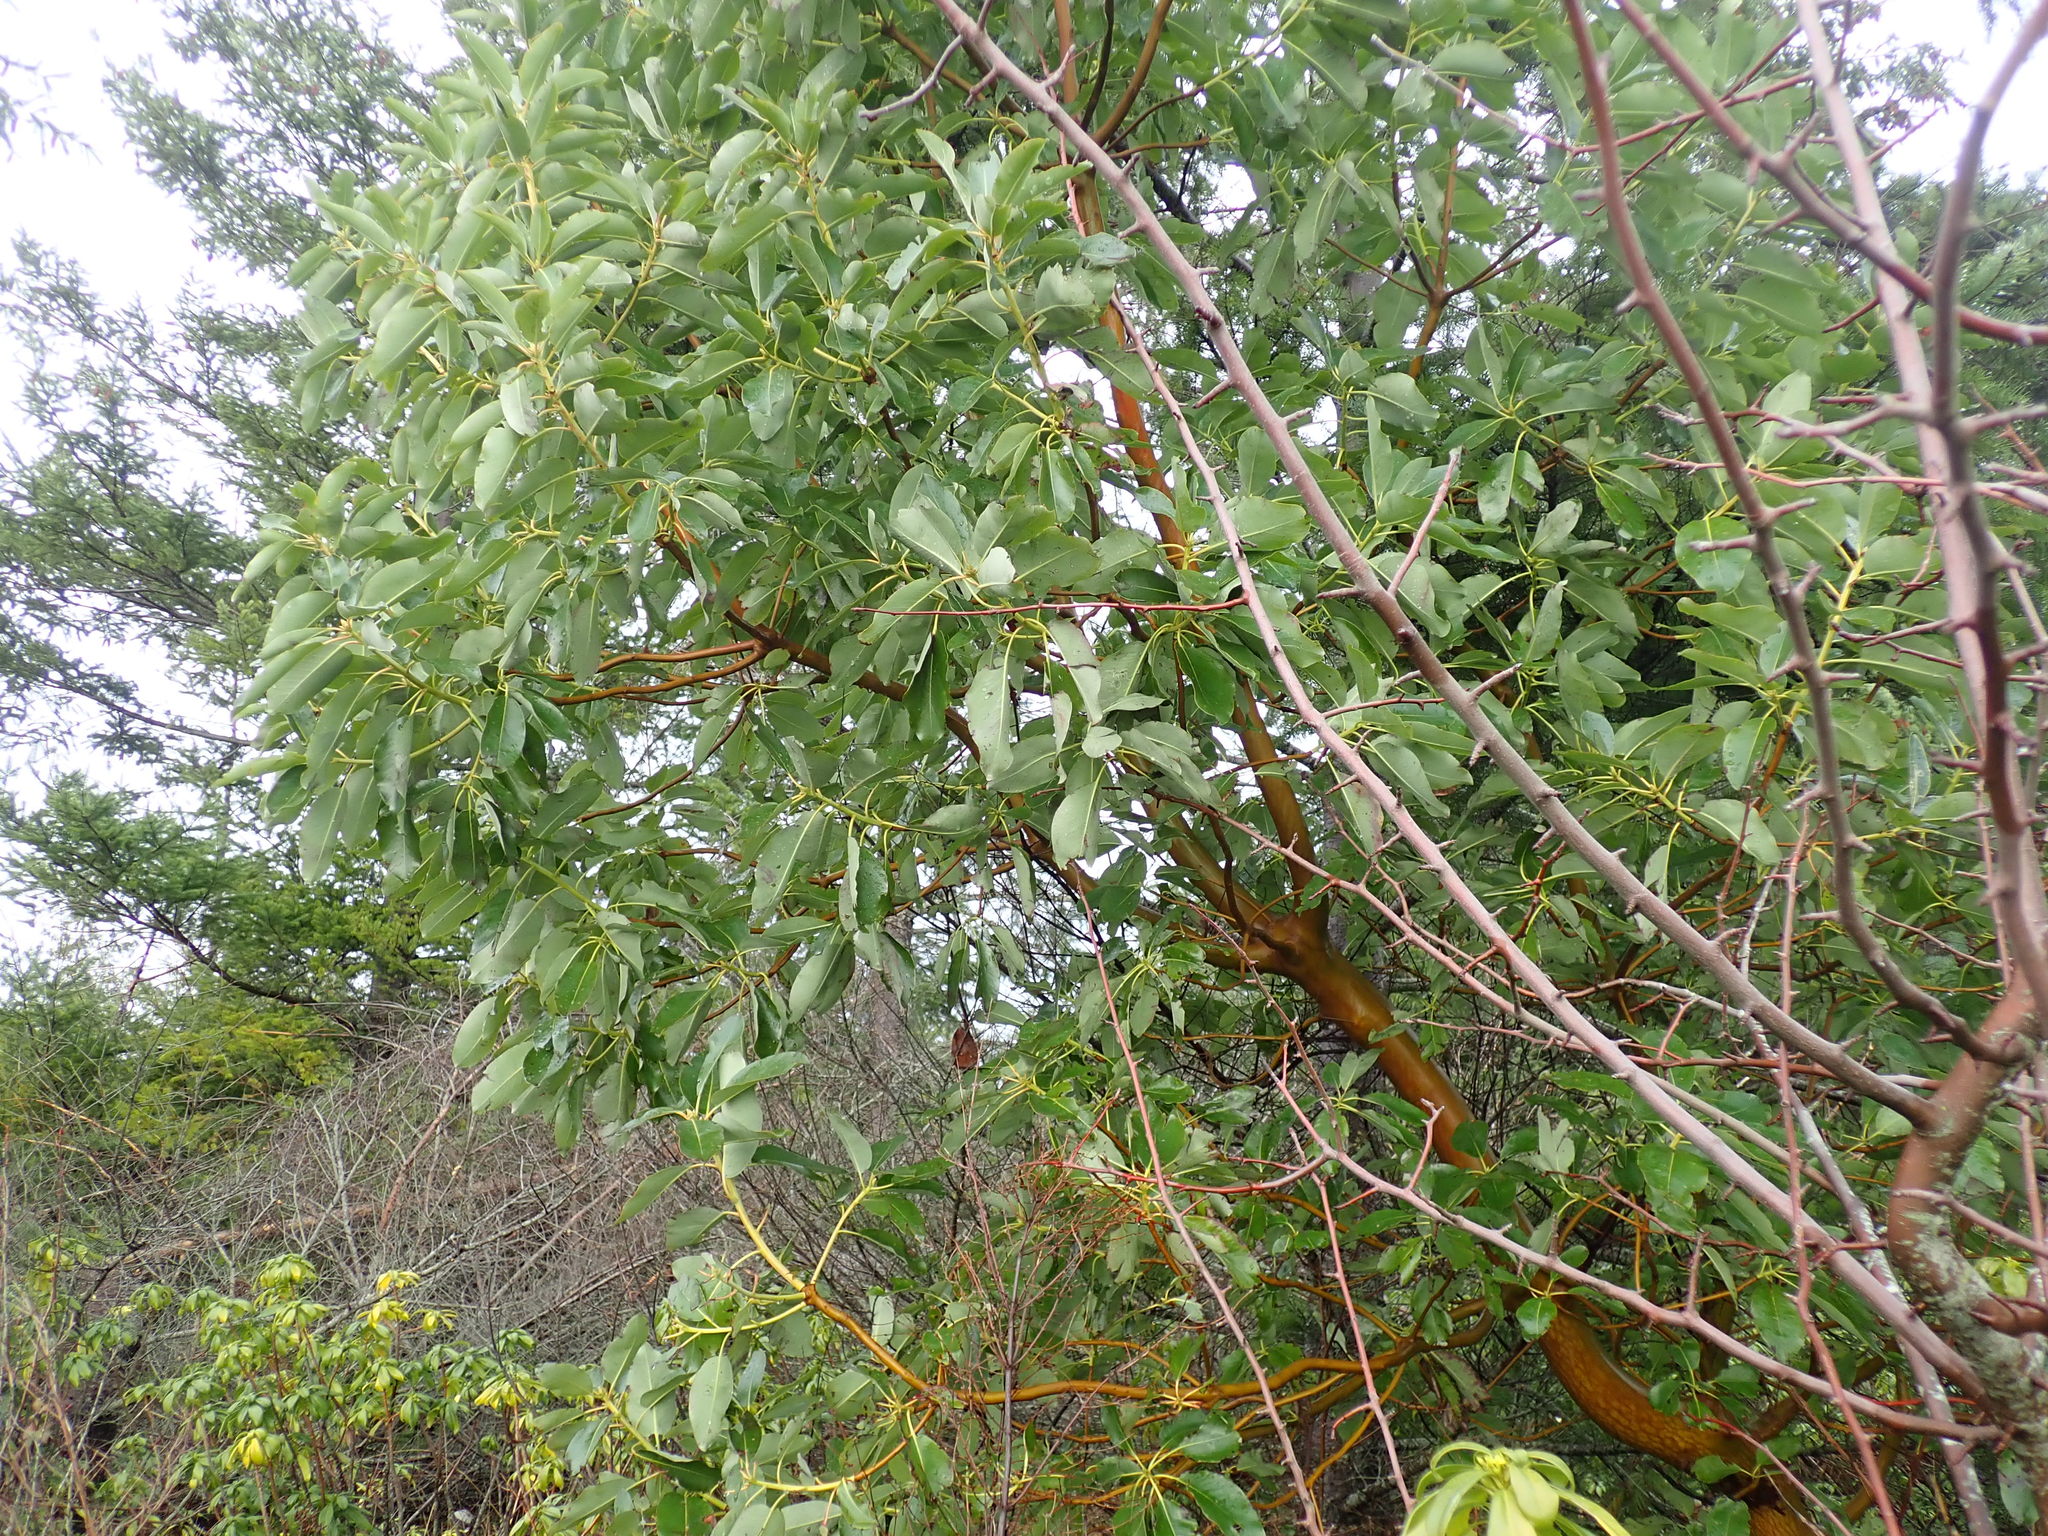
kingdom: Plantae
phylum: Tracheophyta
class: Magnoliopsida
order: Ericales
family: Ericaceae
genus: Arbutus
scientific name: Arbutus menziesii
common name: Pacific madrone
